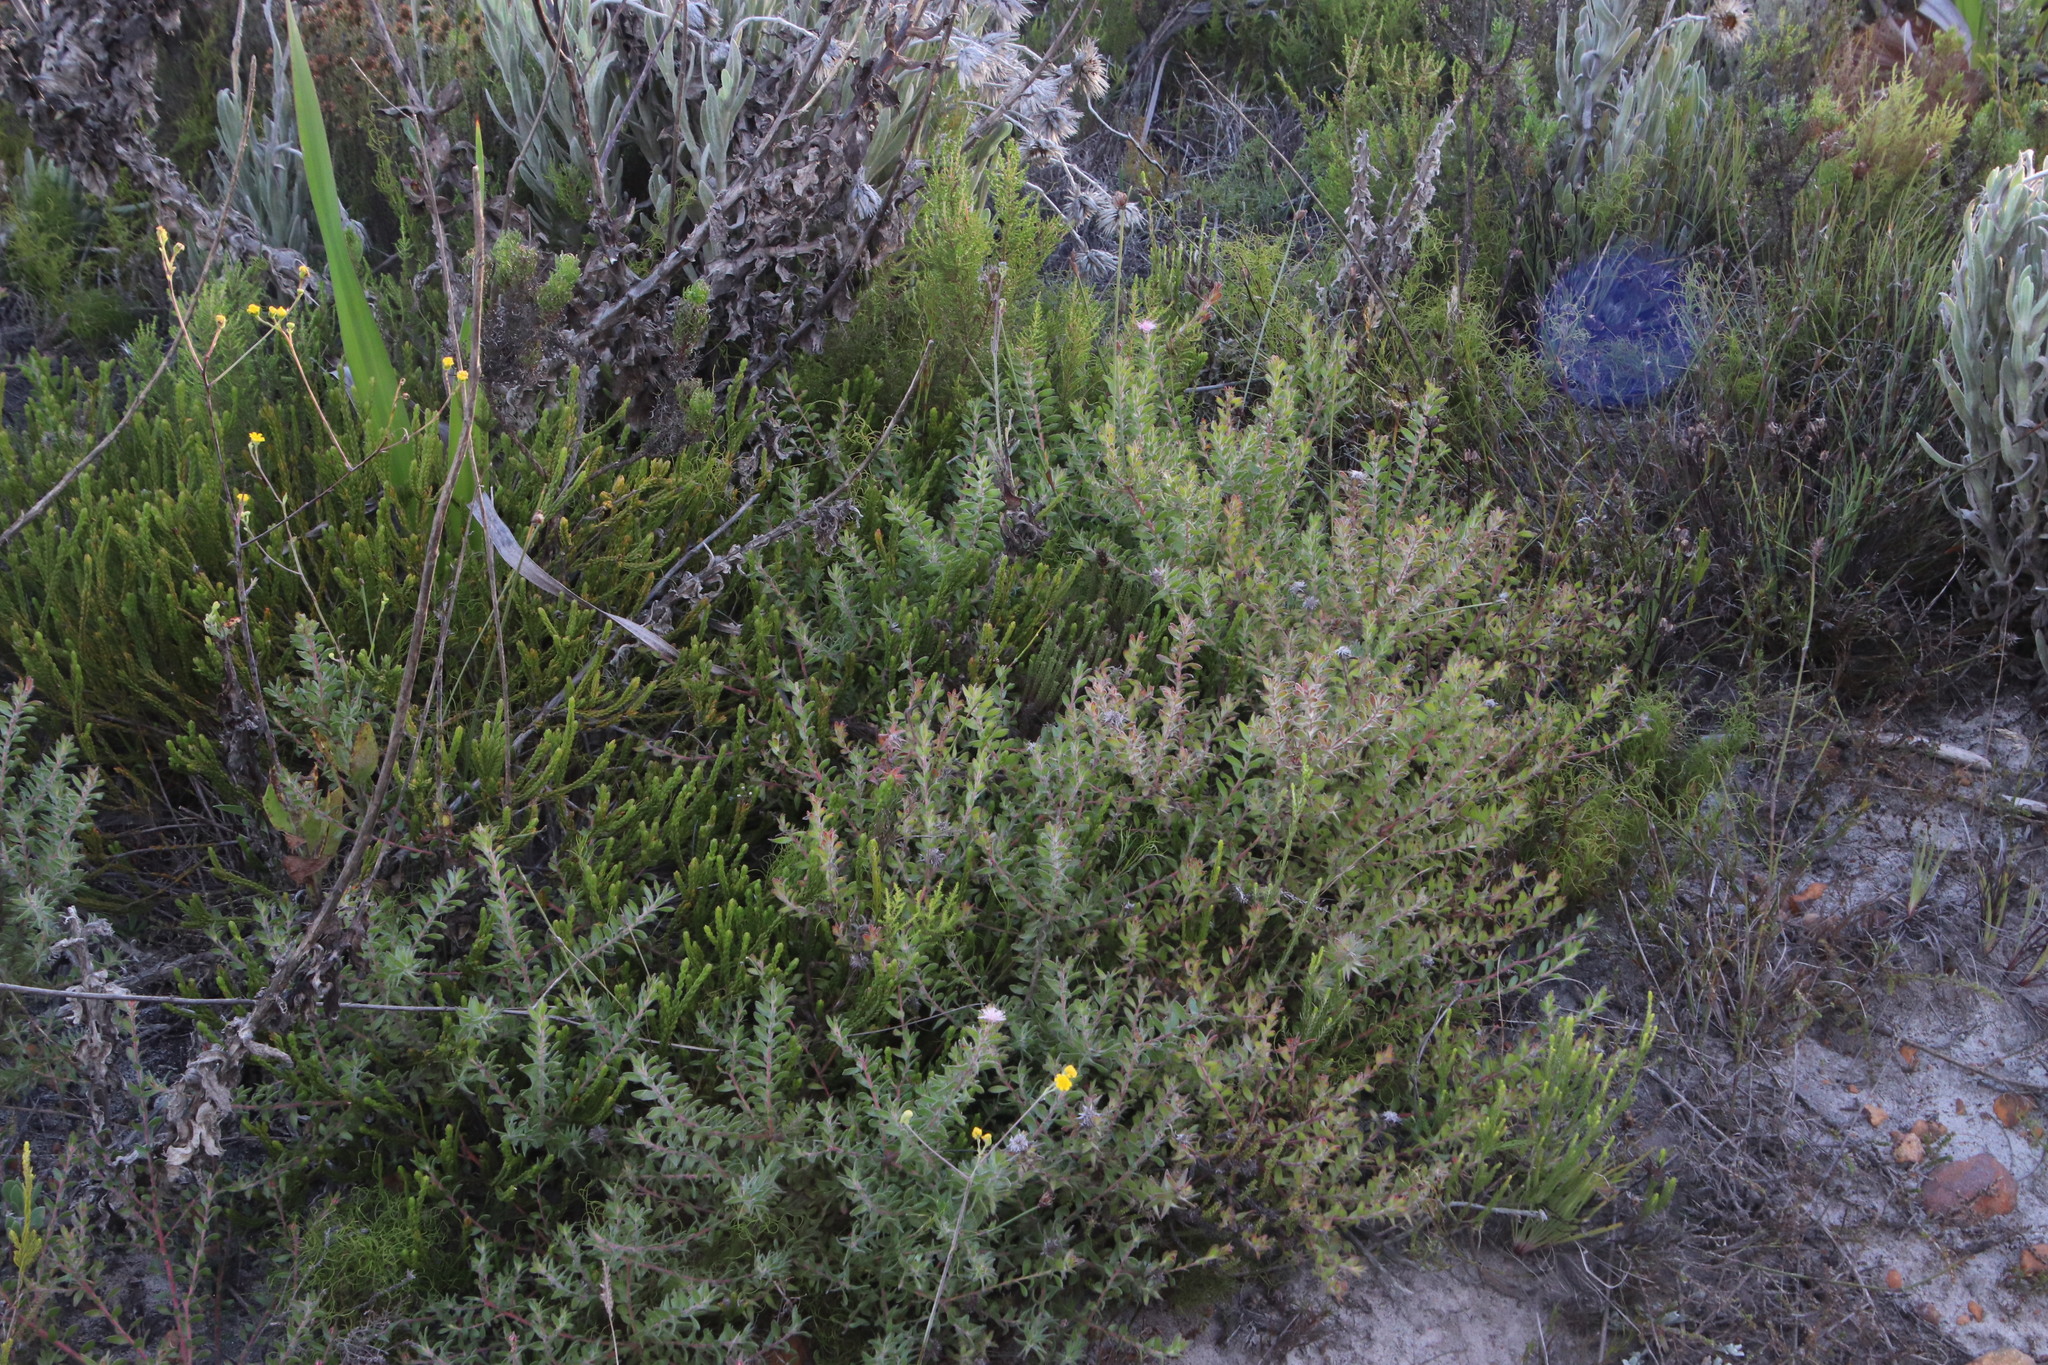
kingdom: Plantae
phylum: Tracheophyta
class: Magnoliopsida
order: Proteales
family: Proteaceae
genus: Diastella
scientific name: Diastella divaricata
